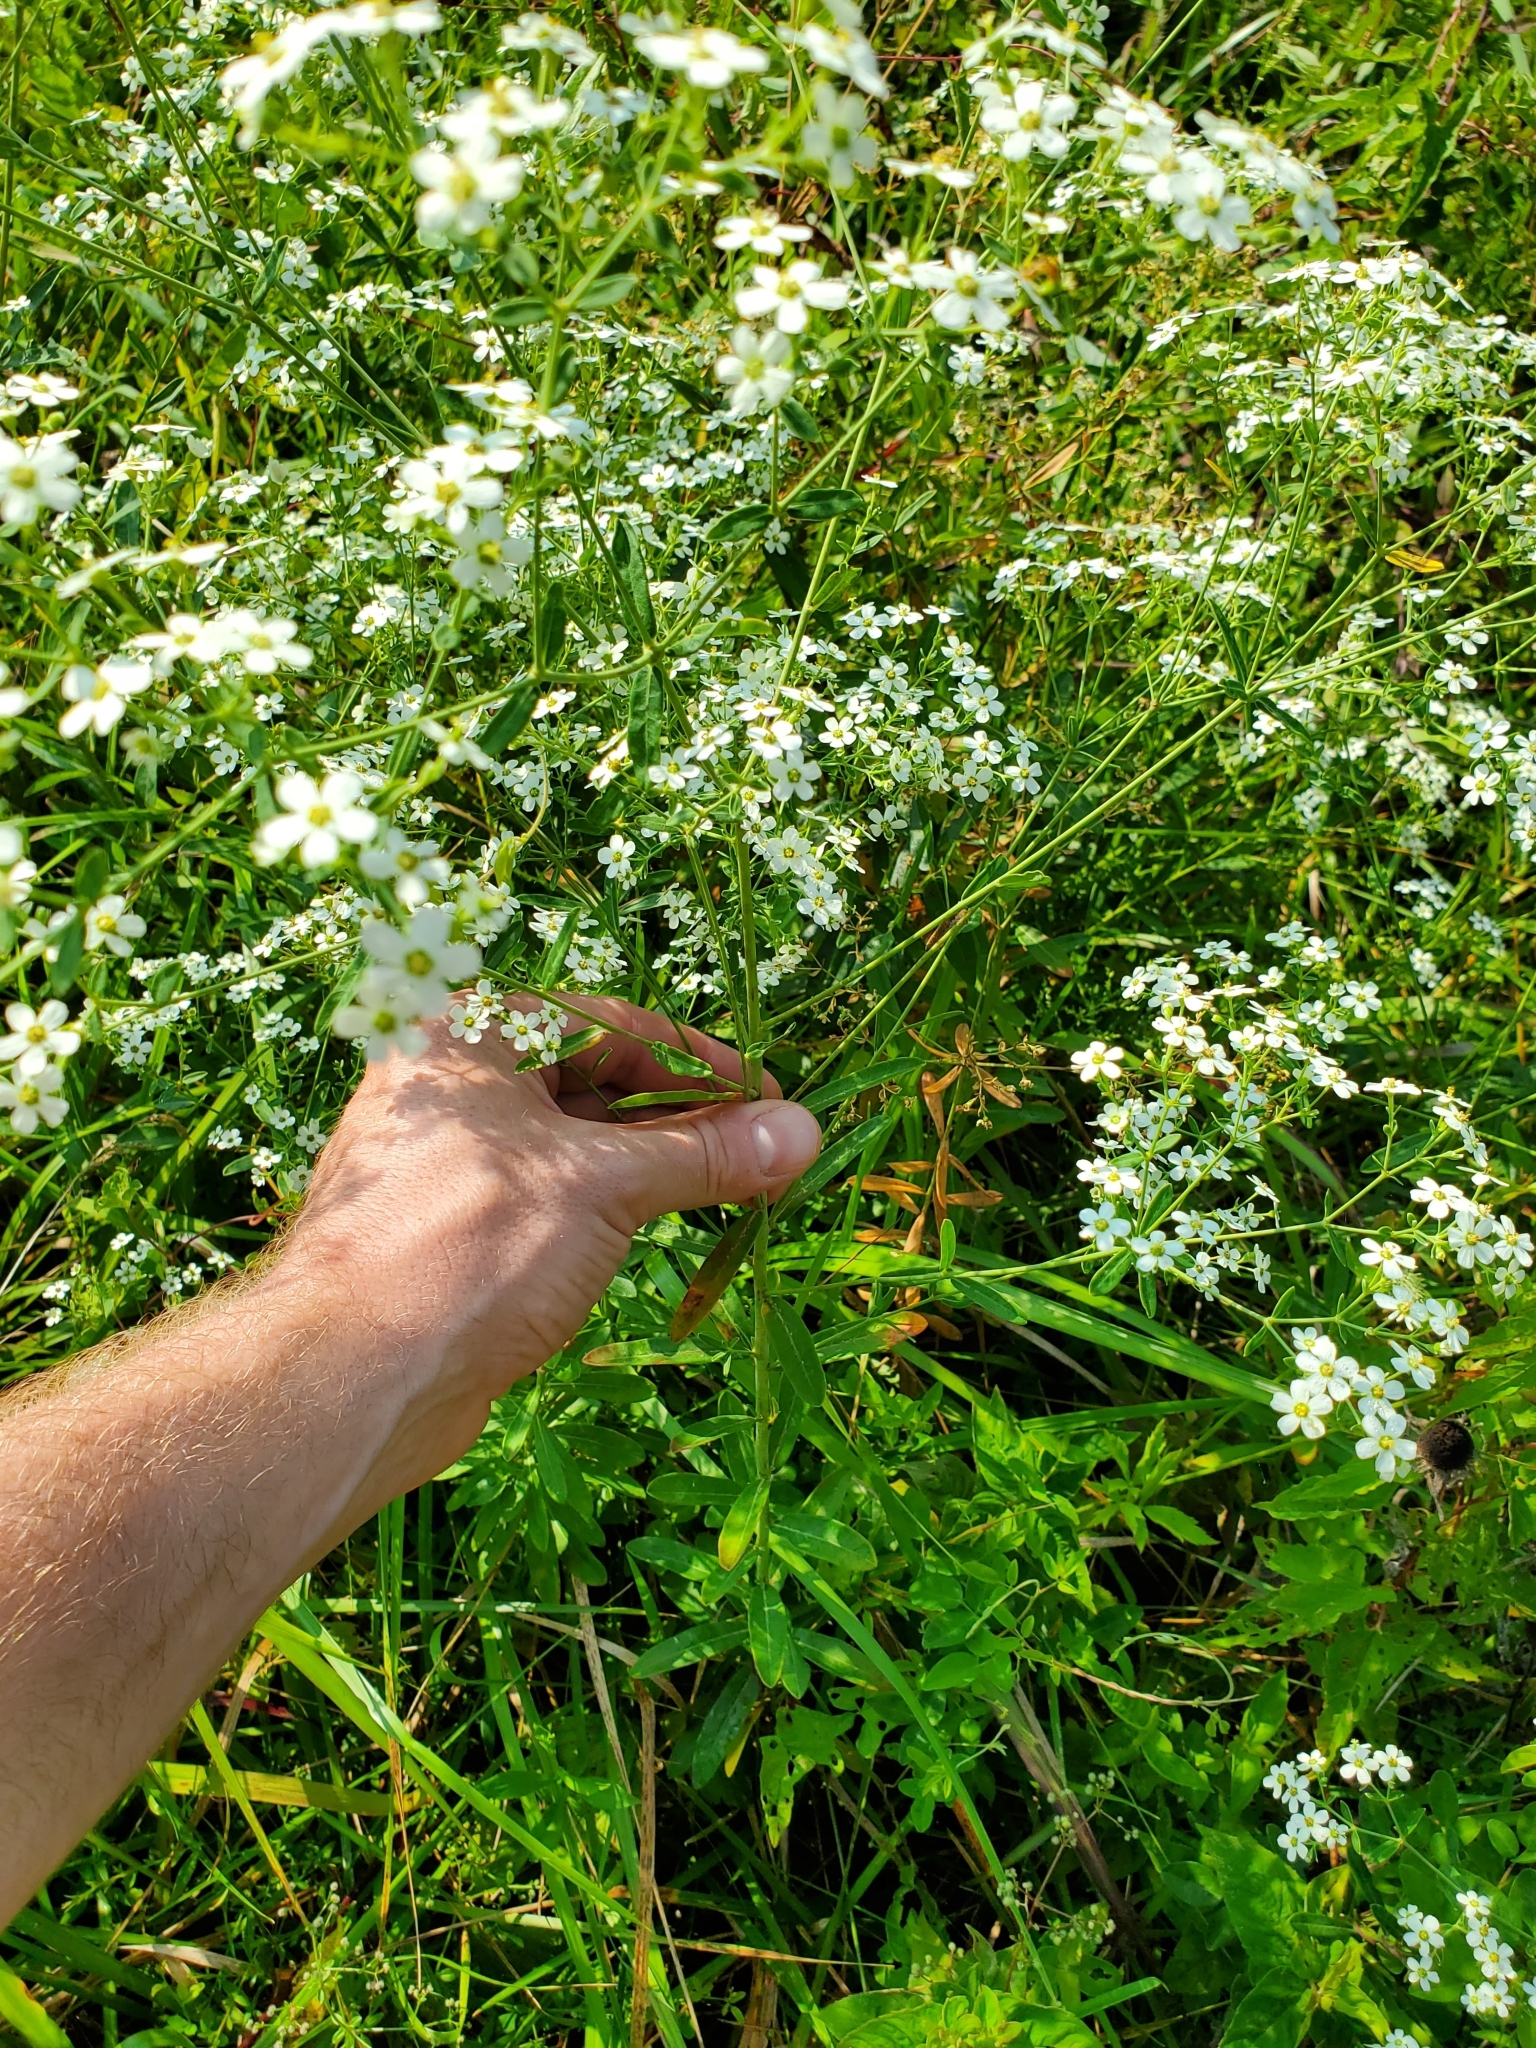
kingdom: Plantae
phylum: Tracheophyta
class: Magnoliopsida
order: Malpighiales
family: Euphorbiaceae
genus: Euphorbia
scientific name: Euphorbia corollata
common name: Flowering spurge
